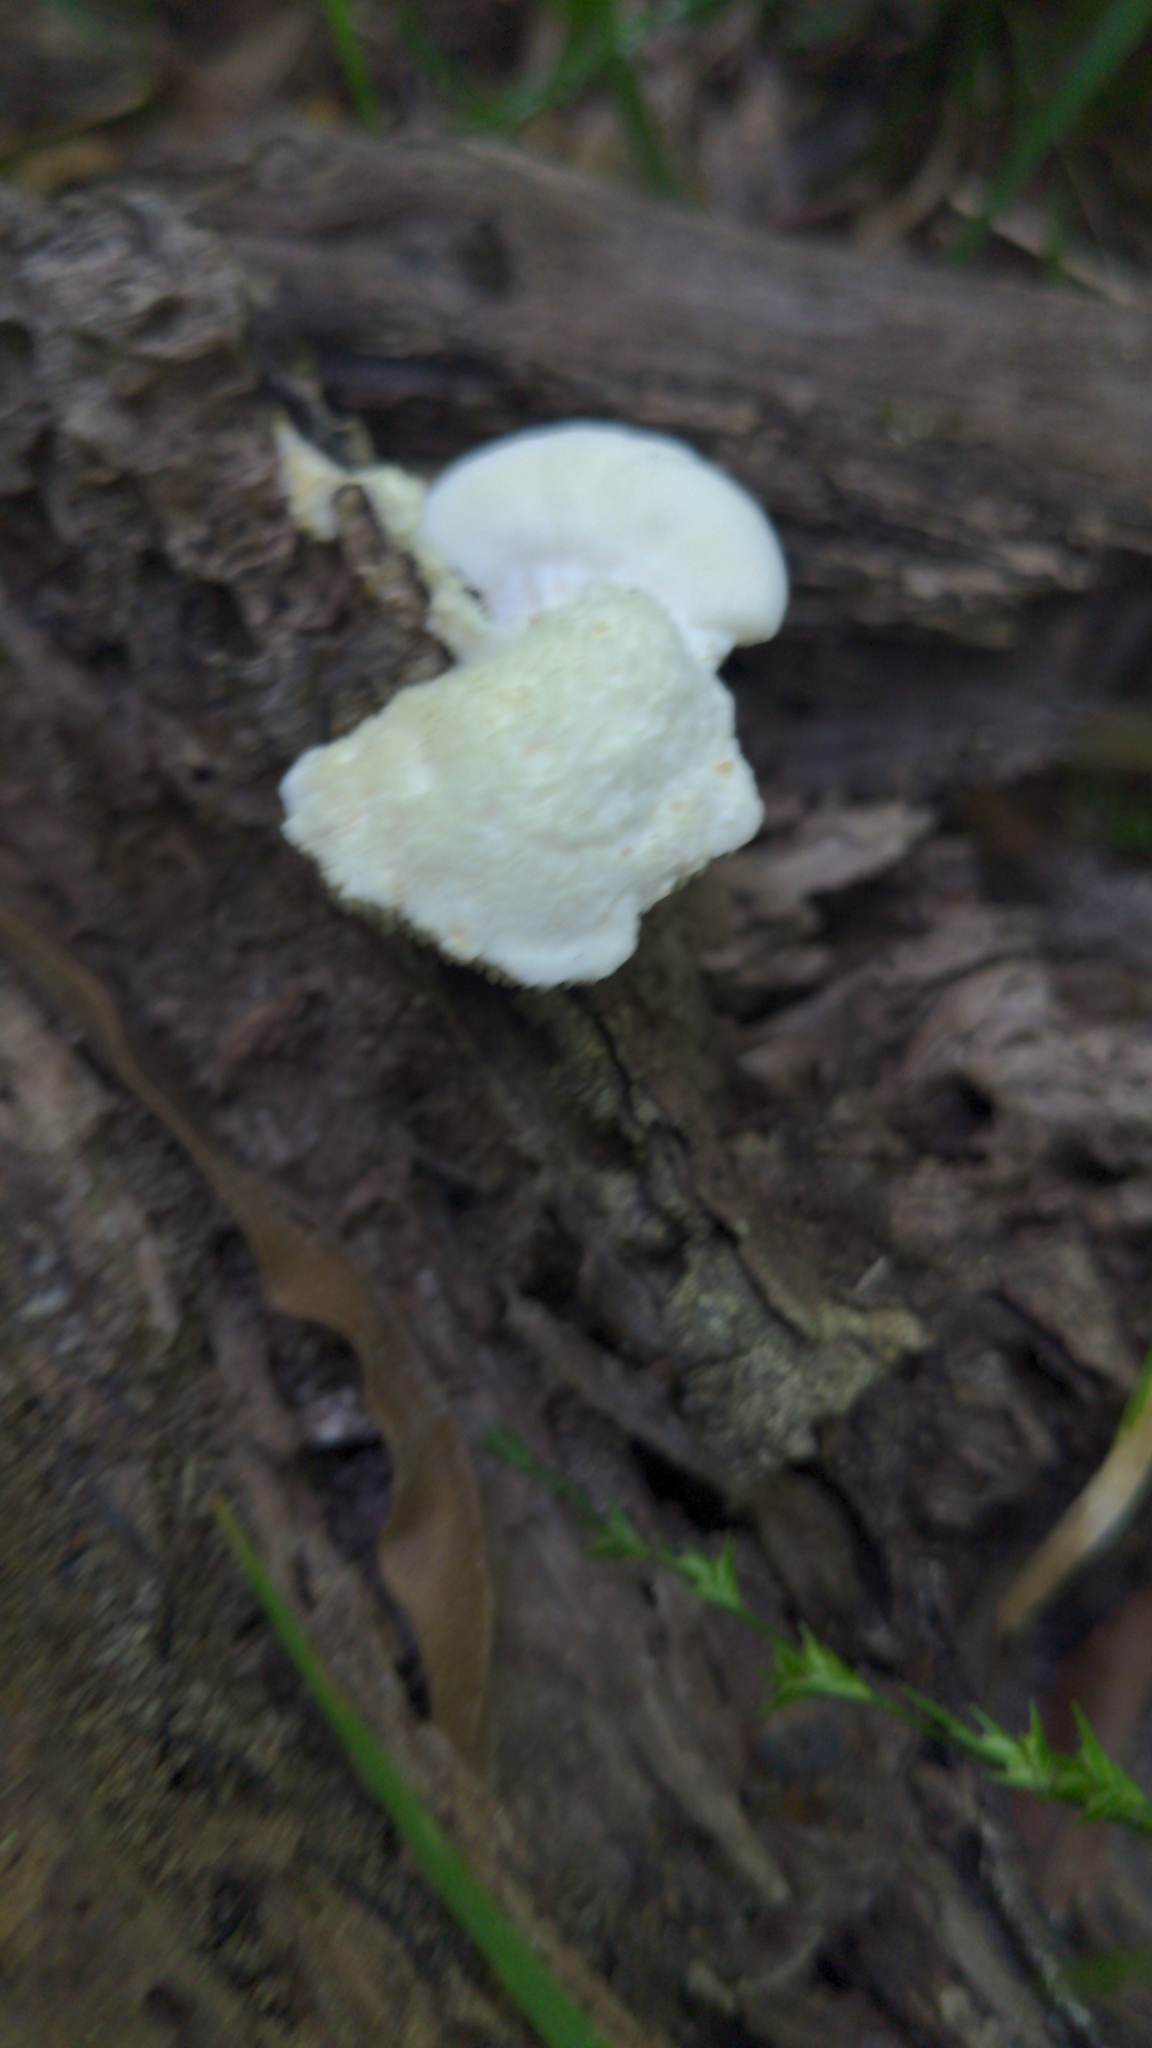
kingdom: Fungi
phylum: Basidiomycota
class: Agaricomycetes
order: Polyporales
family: Meruliaceae
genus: Irpiciporus
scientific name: Irpiciporus pachyodon
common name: Marshmallow polypore
